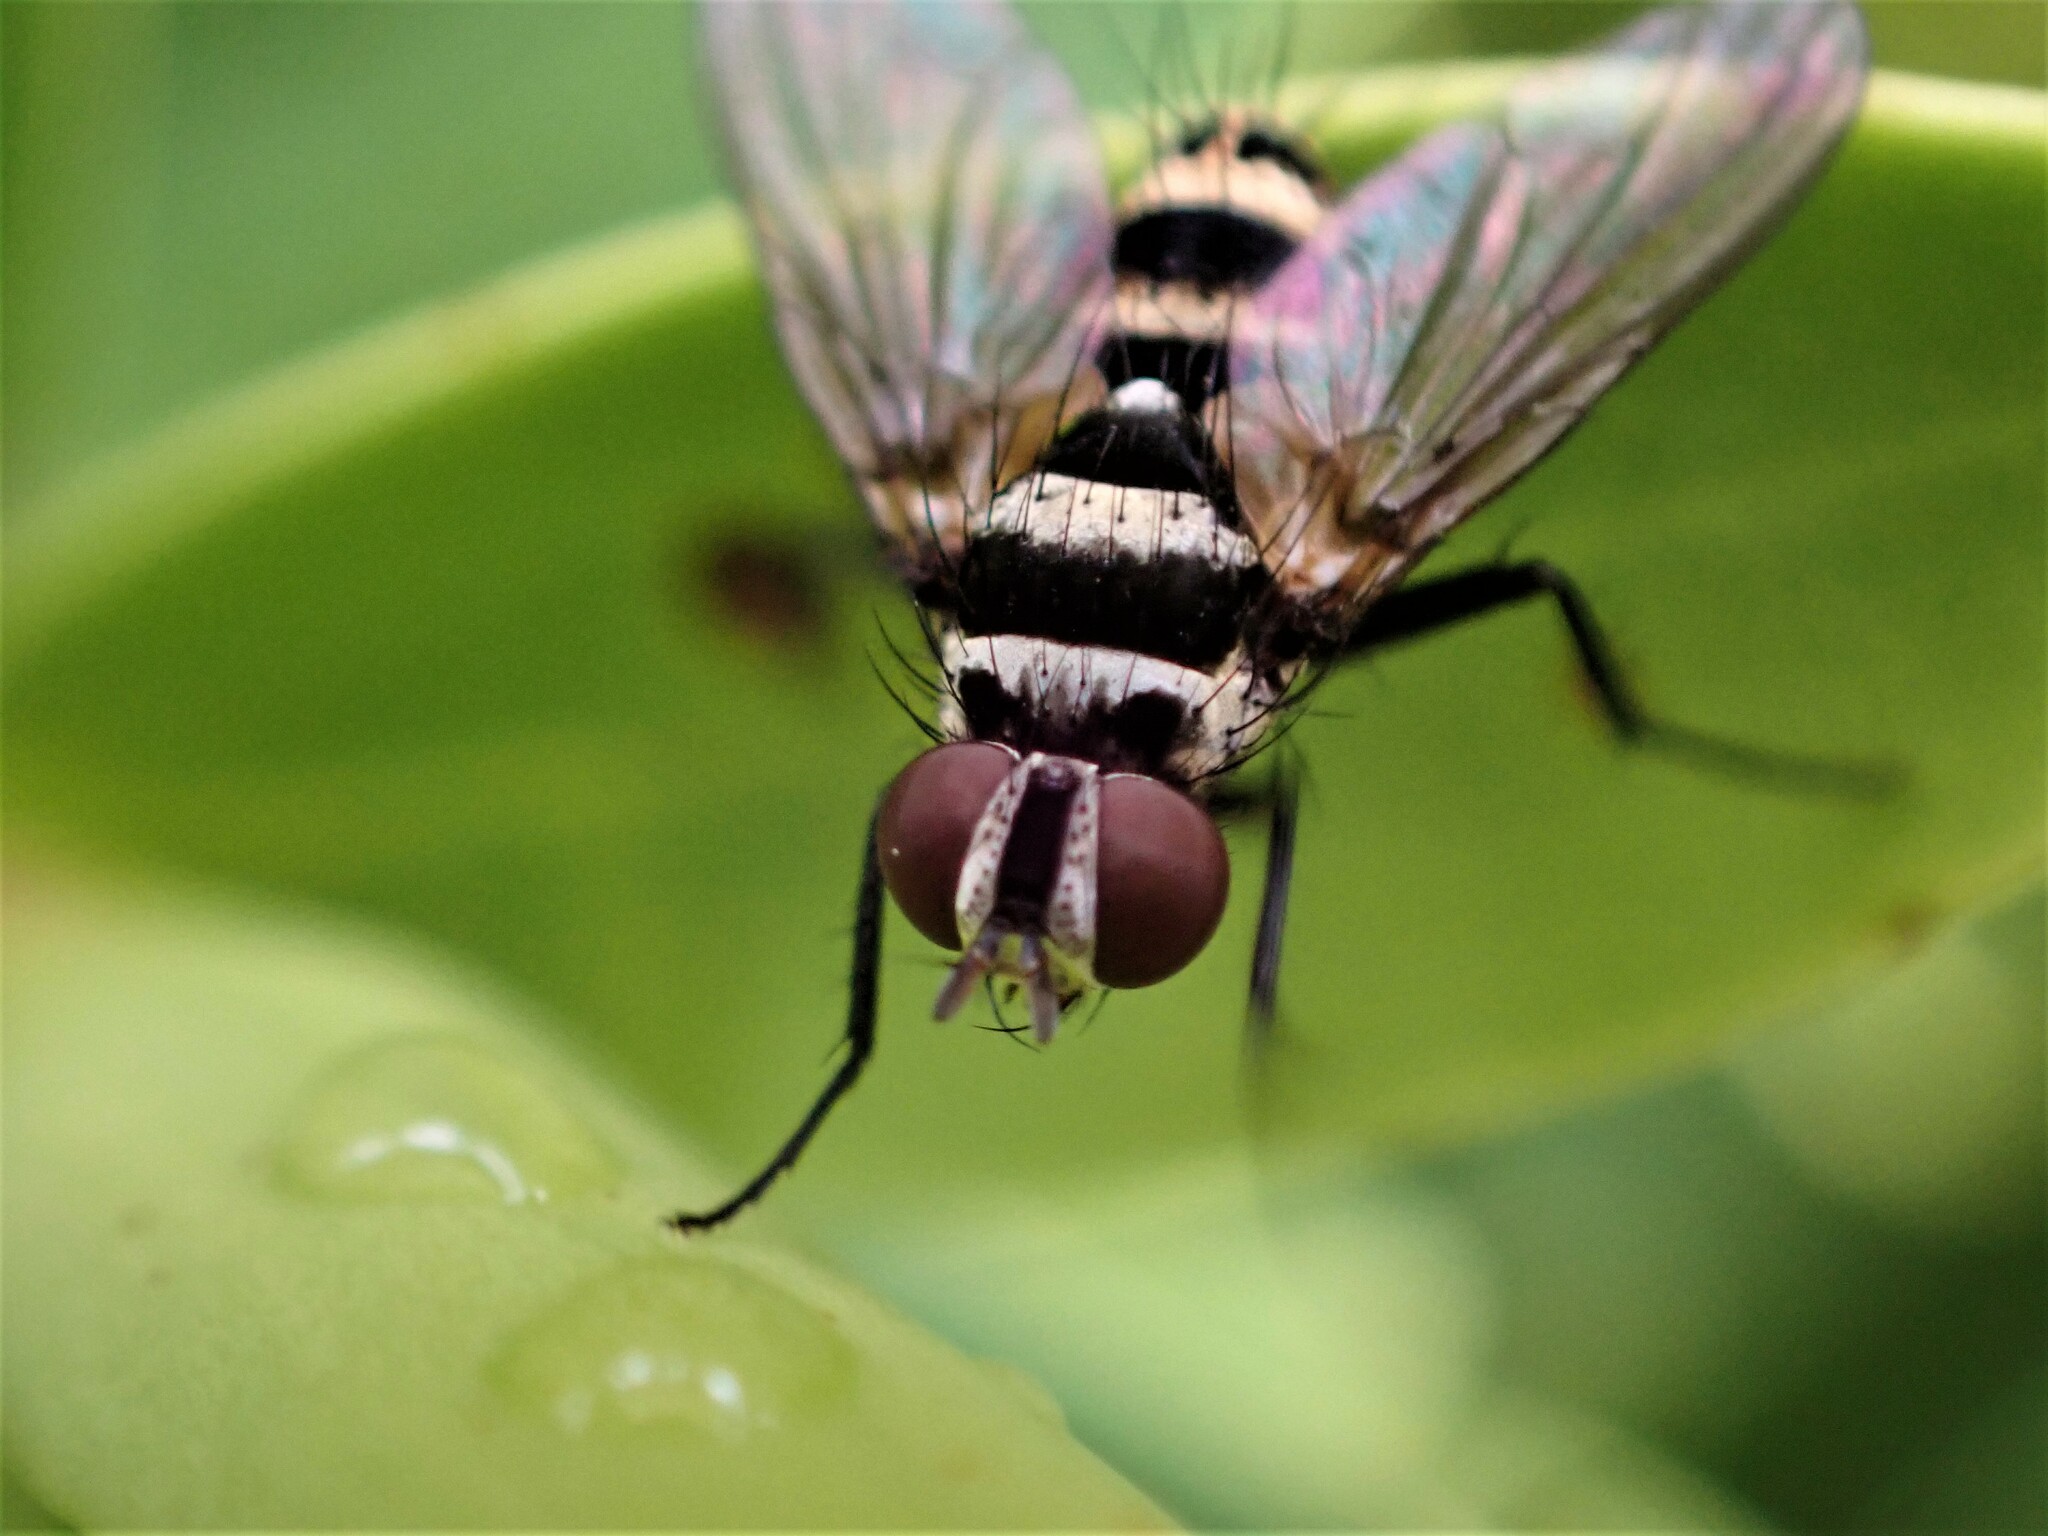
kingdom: Animalia
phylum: Arthropoda
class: Insecta
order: Diptera
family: Tachinidae
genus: Trigonospila
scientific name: Trigonospila brevifacies
